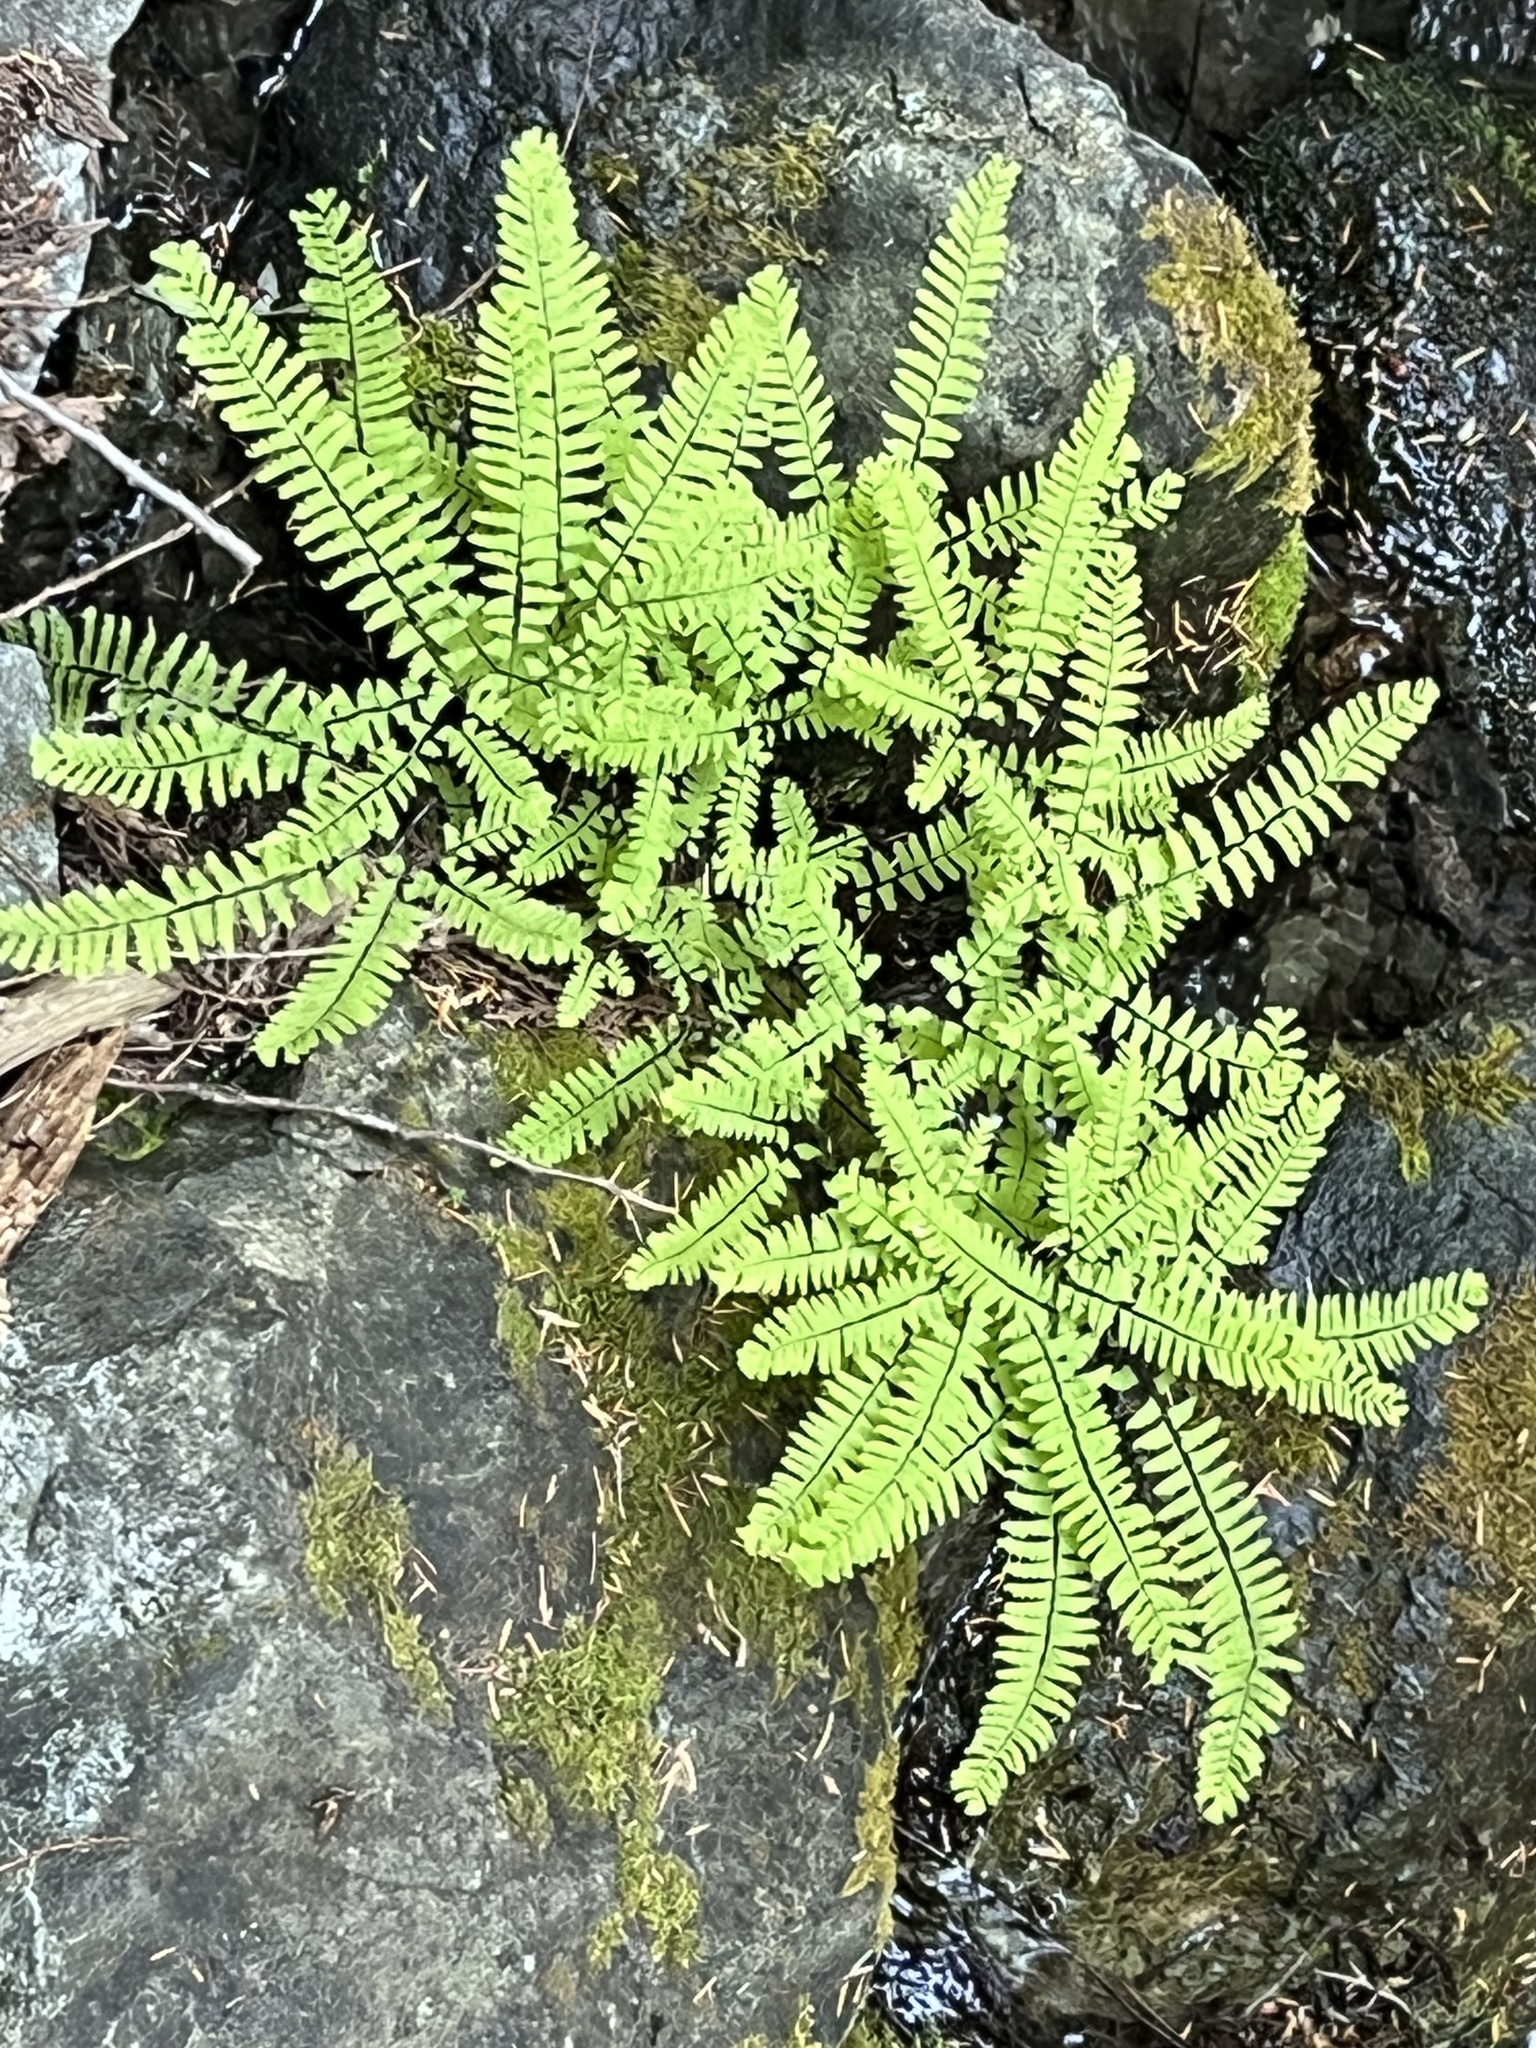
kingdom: Plantae
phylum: Tracheophyta
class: Polypodiopsida
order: Polypodiales
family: Pteridaceae
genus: Adiantum
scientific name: Adiantum aleuticum
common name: Aleutian maidenhair fern
